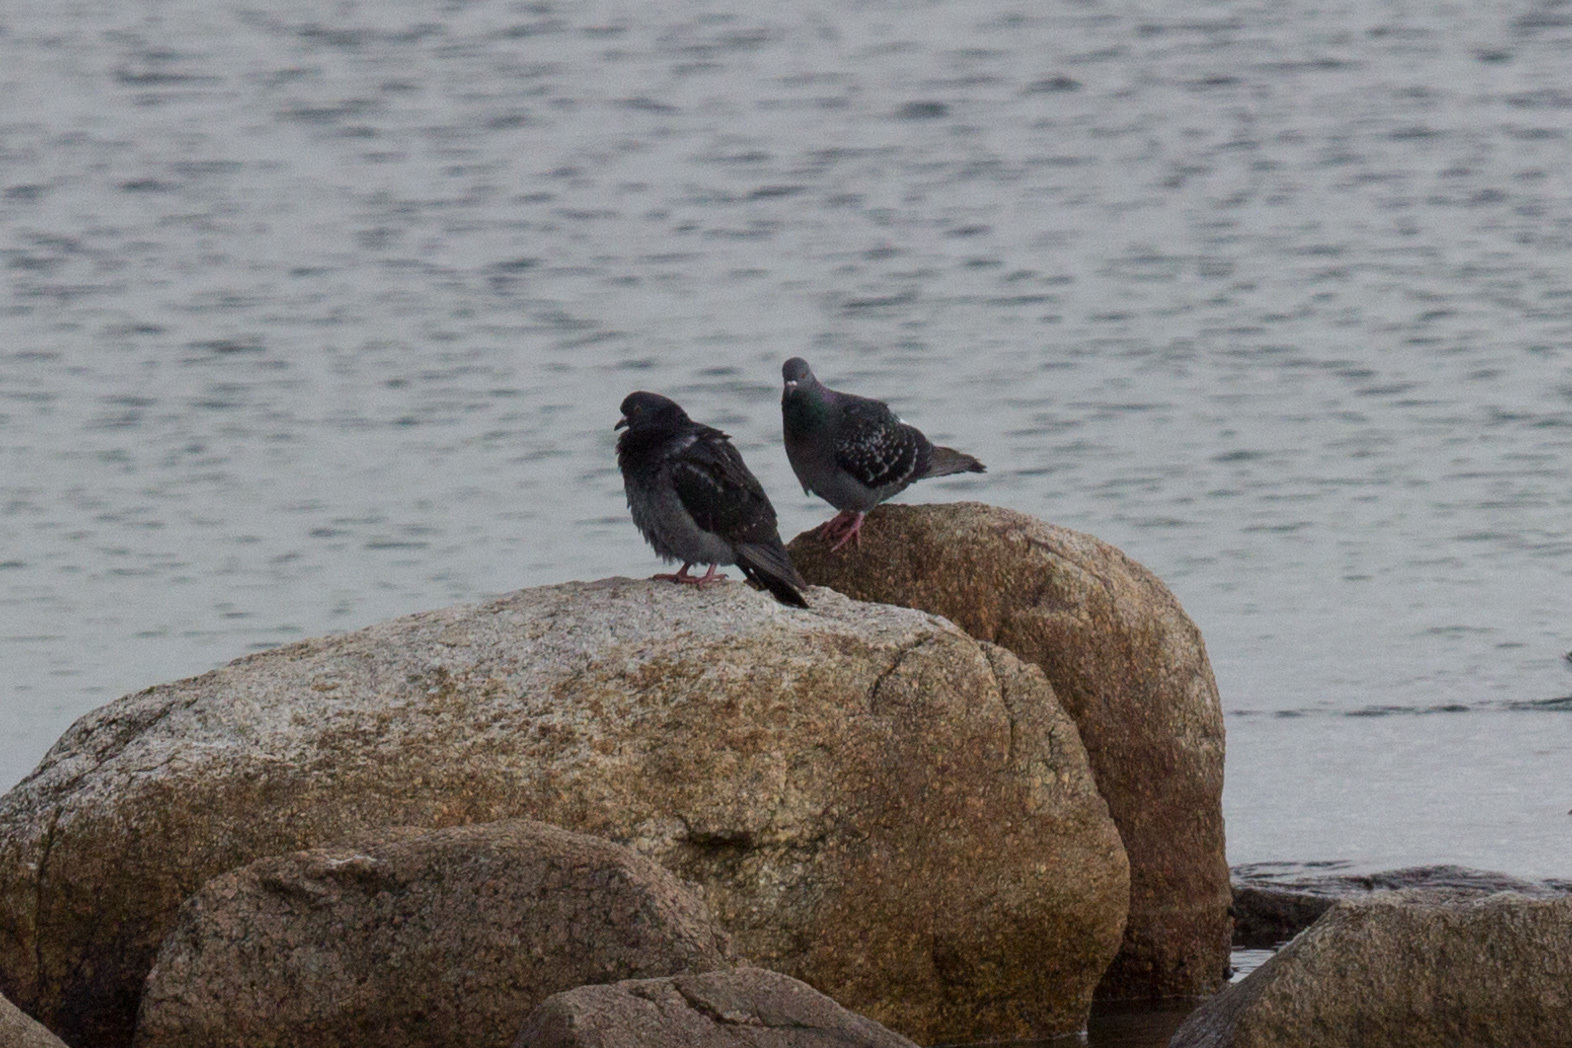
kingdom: Animalia
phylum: Chordata
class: Aves
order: Columbiformes
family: Columbidae
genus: Columba
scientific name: Columba livia
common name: Rock pigeon
